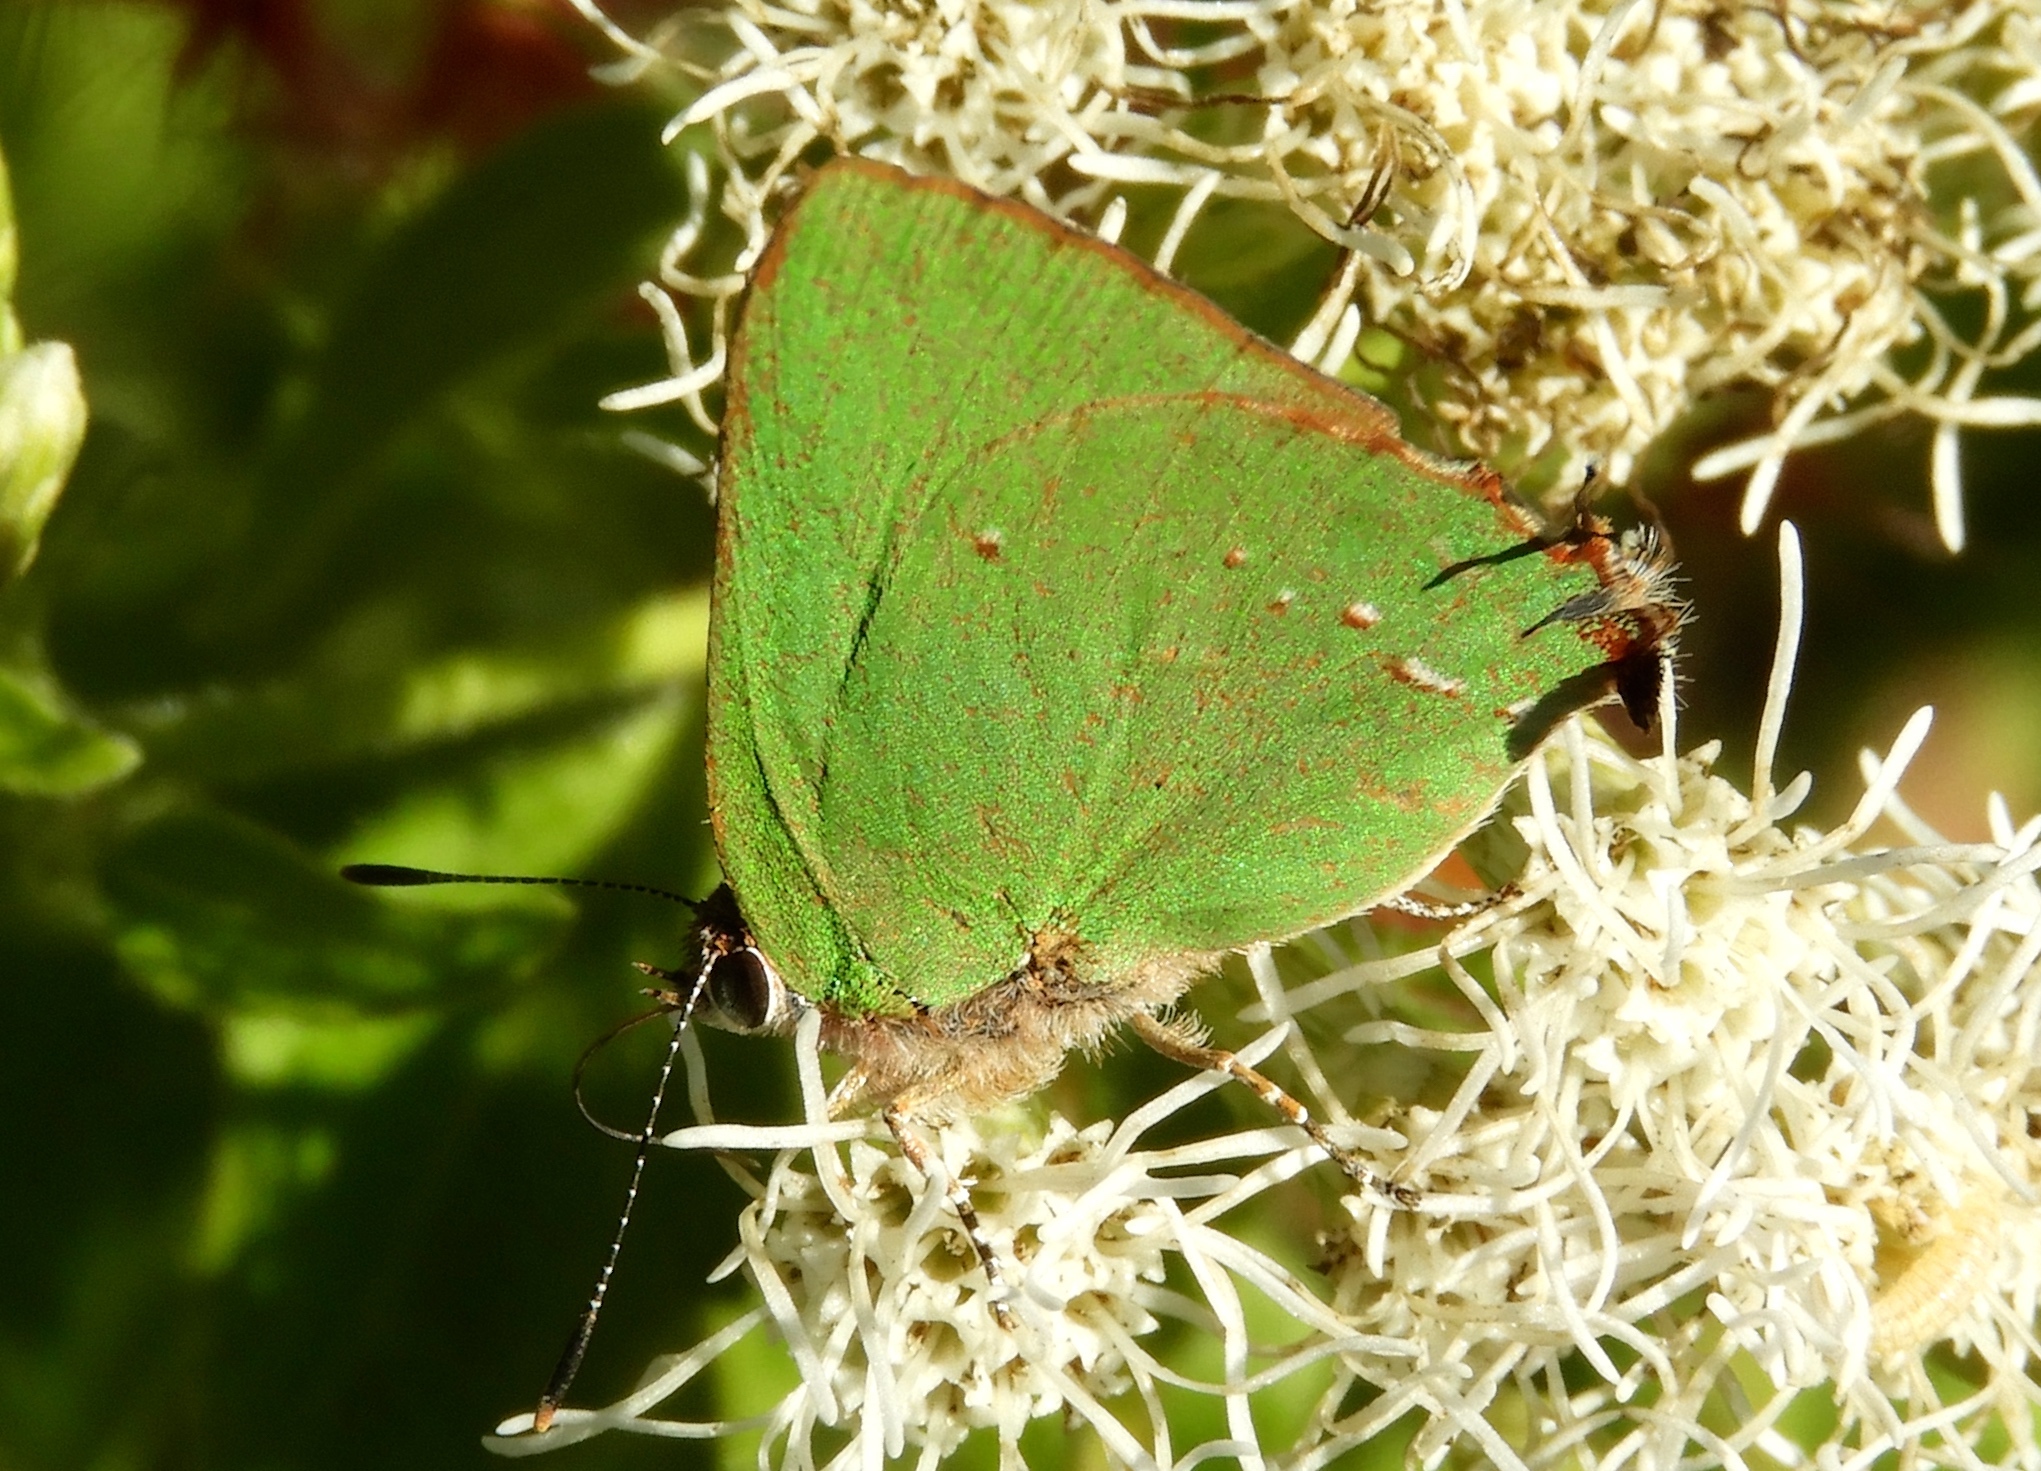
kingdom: Animalia
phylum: Arthropoda
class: Insecta
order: Lepidoptera
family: Lycaenidae
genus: Thecla
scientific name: Thecla herodotus
